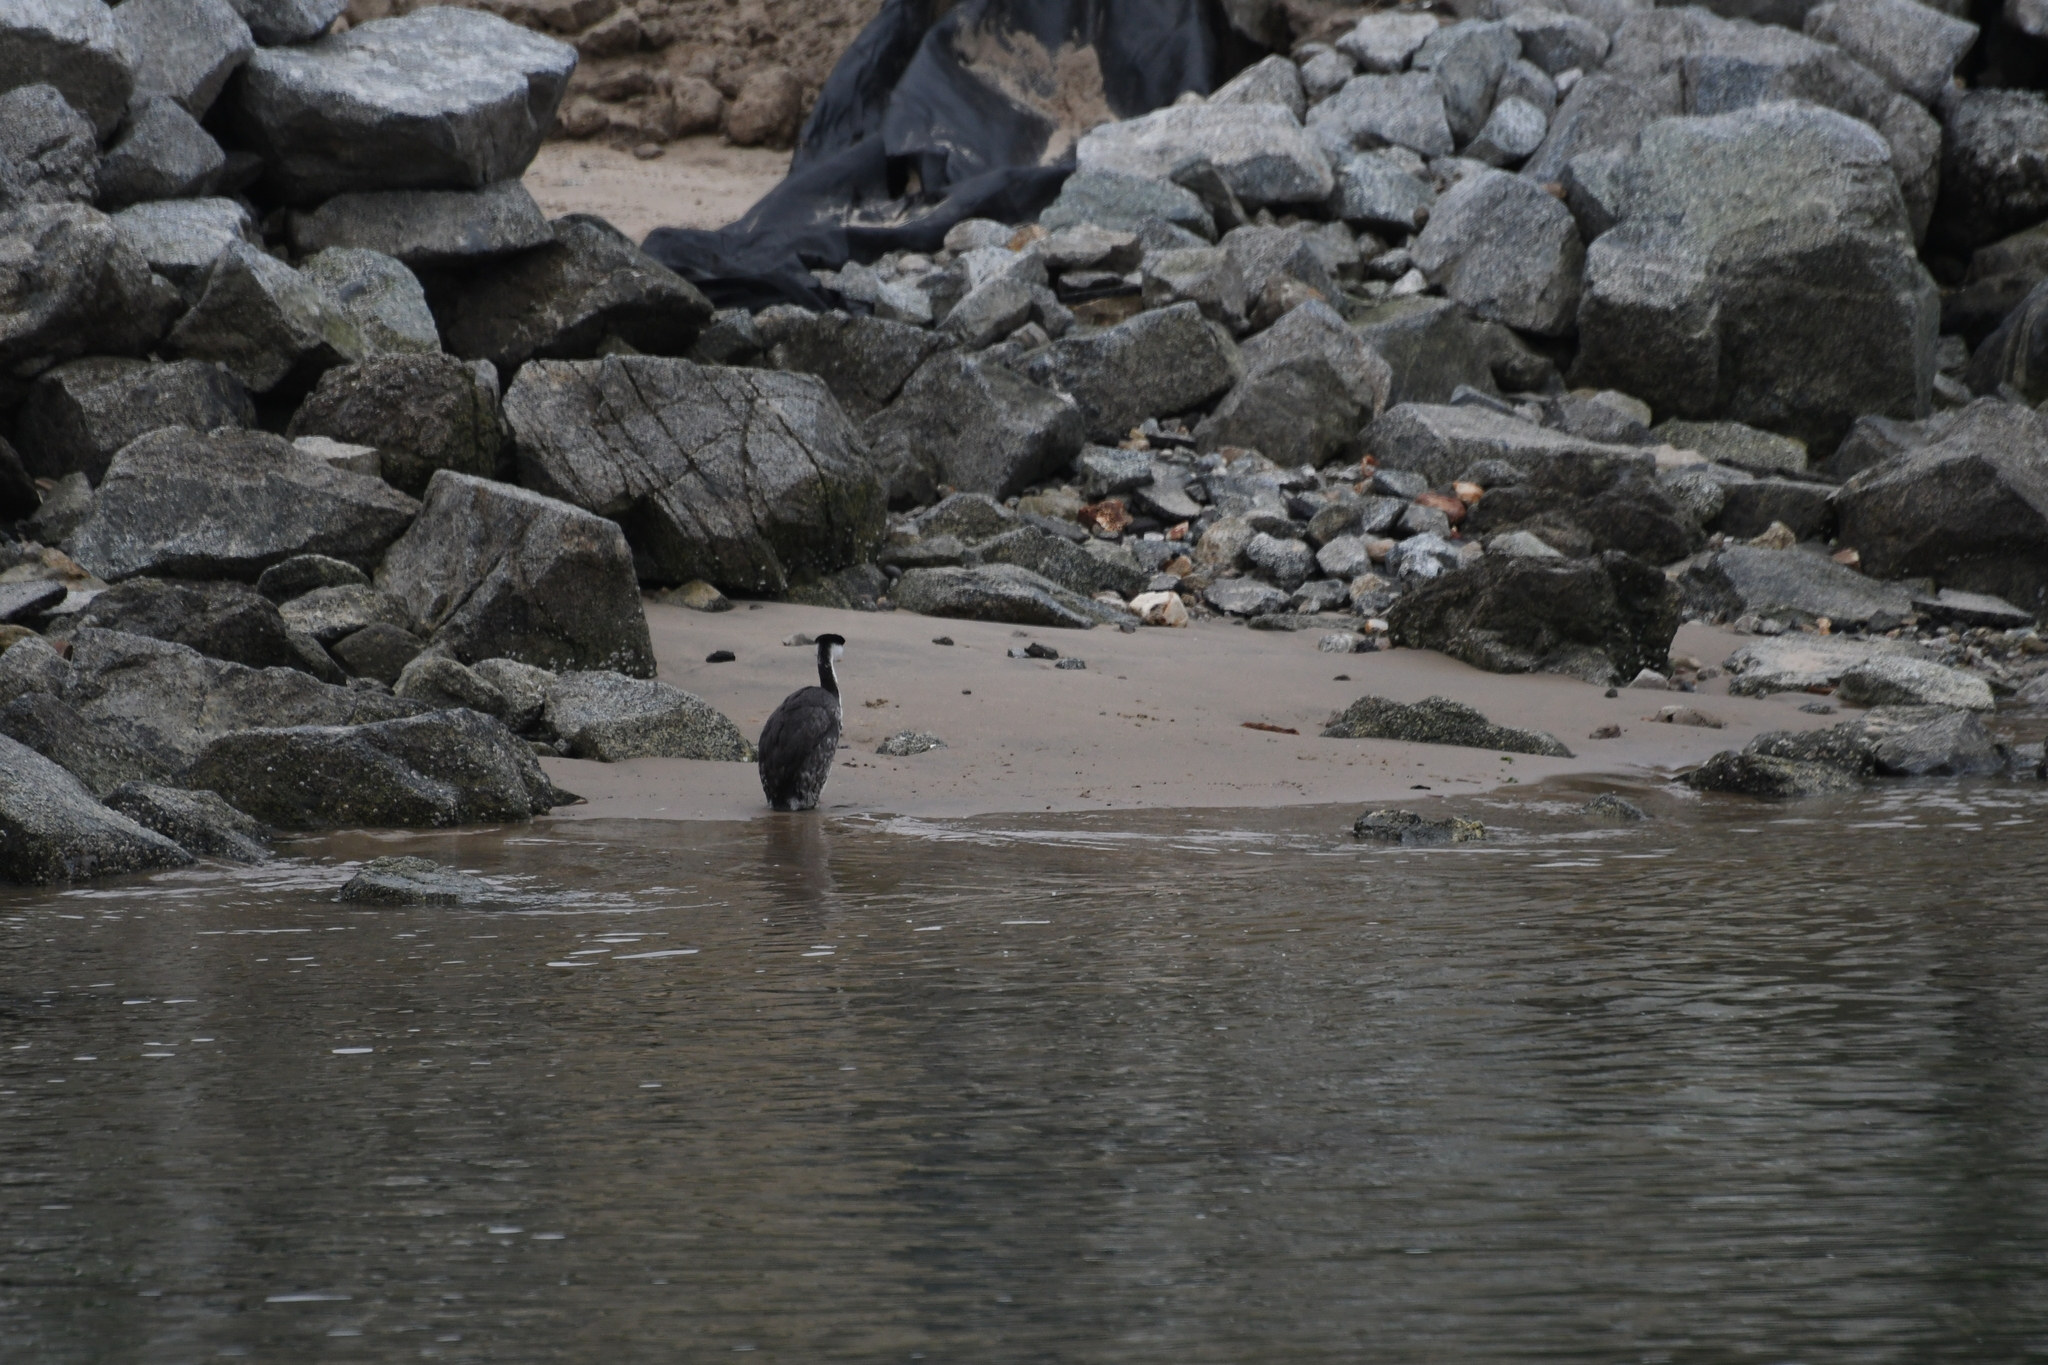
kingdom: Animalia
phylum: Chordata
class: Aves
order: Podicipediformes
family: Podicipedidae
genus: Aechmophorus
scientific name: Aechmophorus occidentalis
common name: Western grebe
